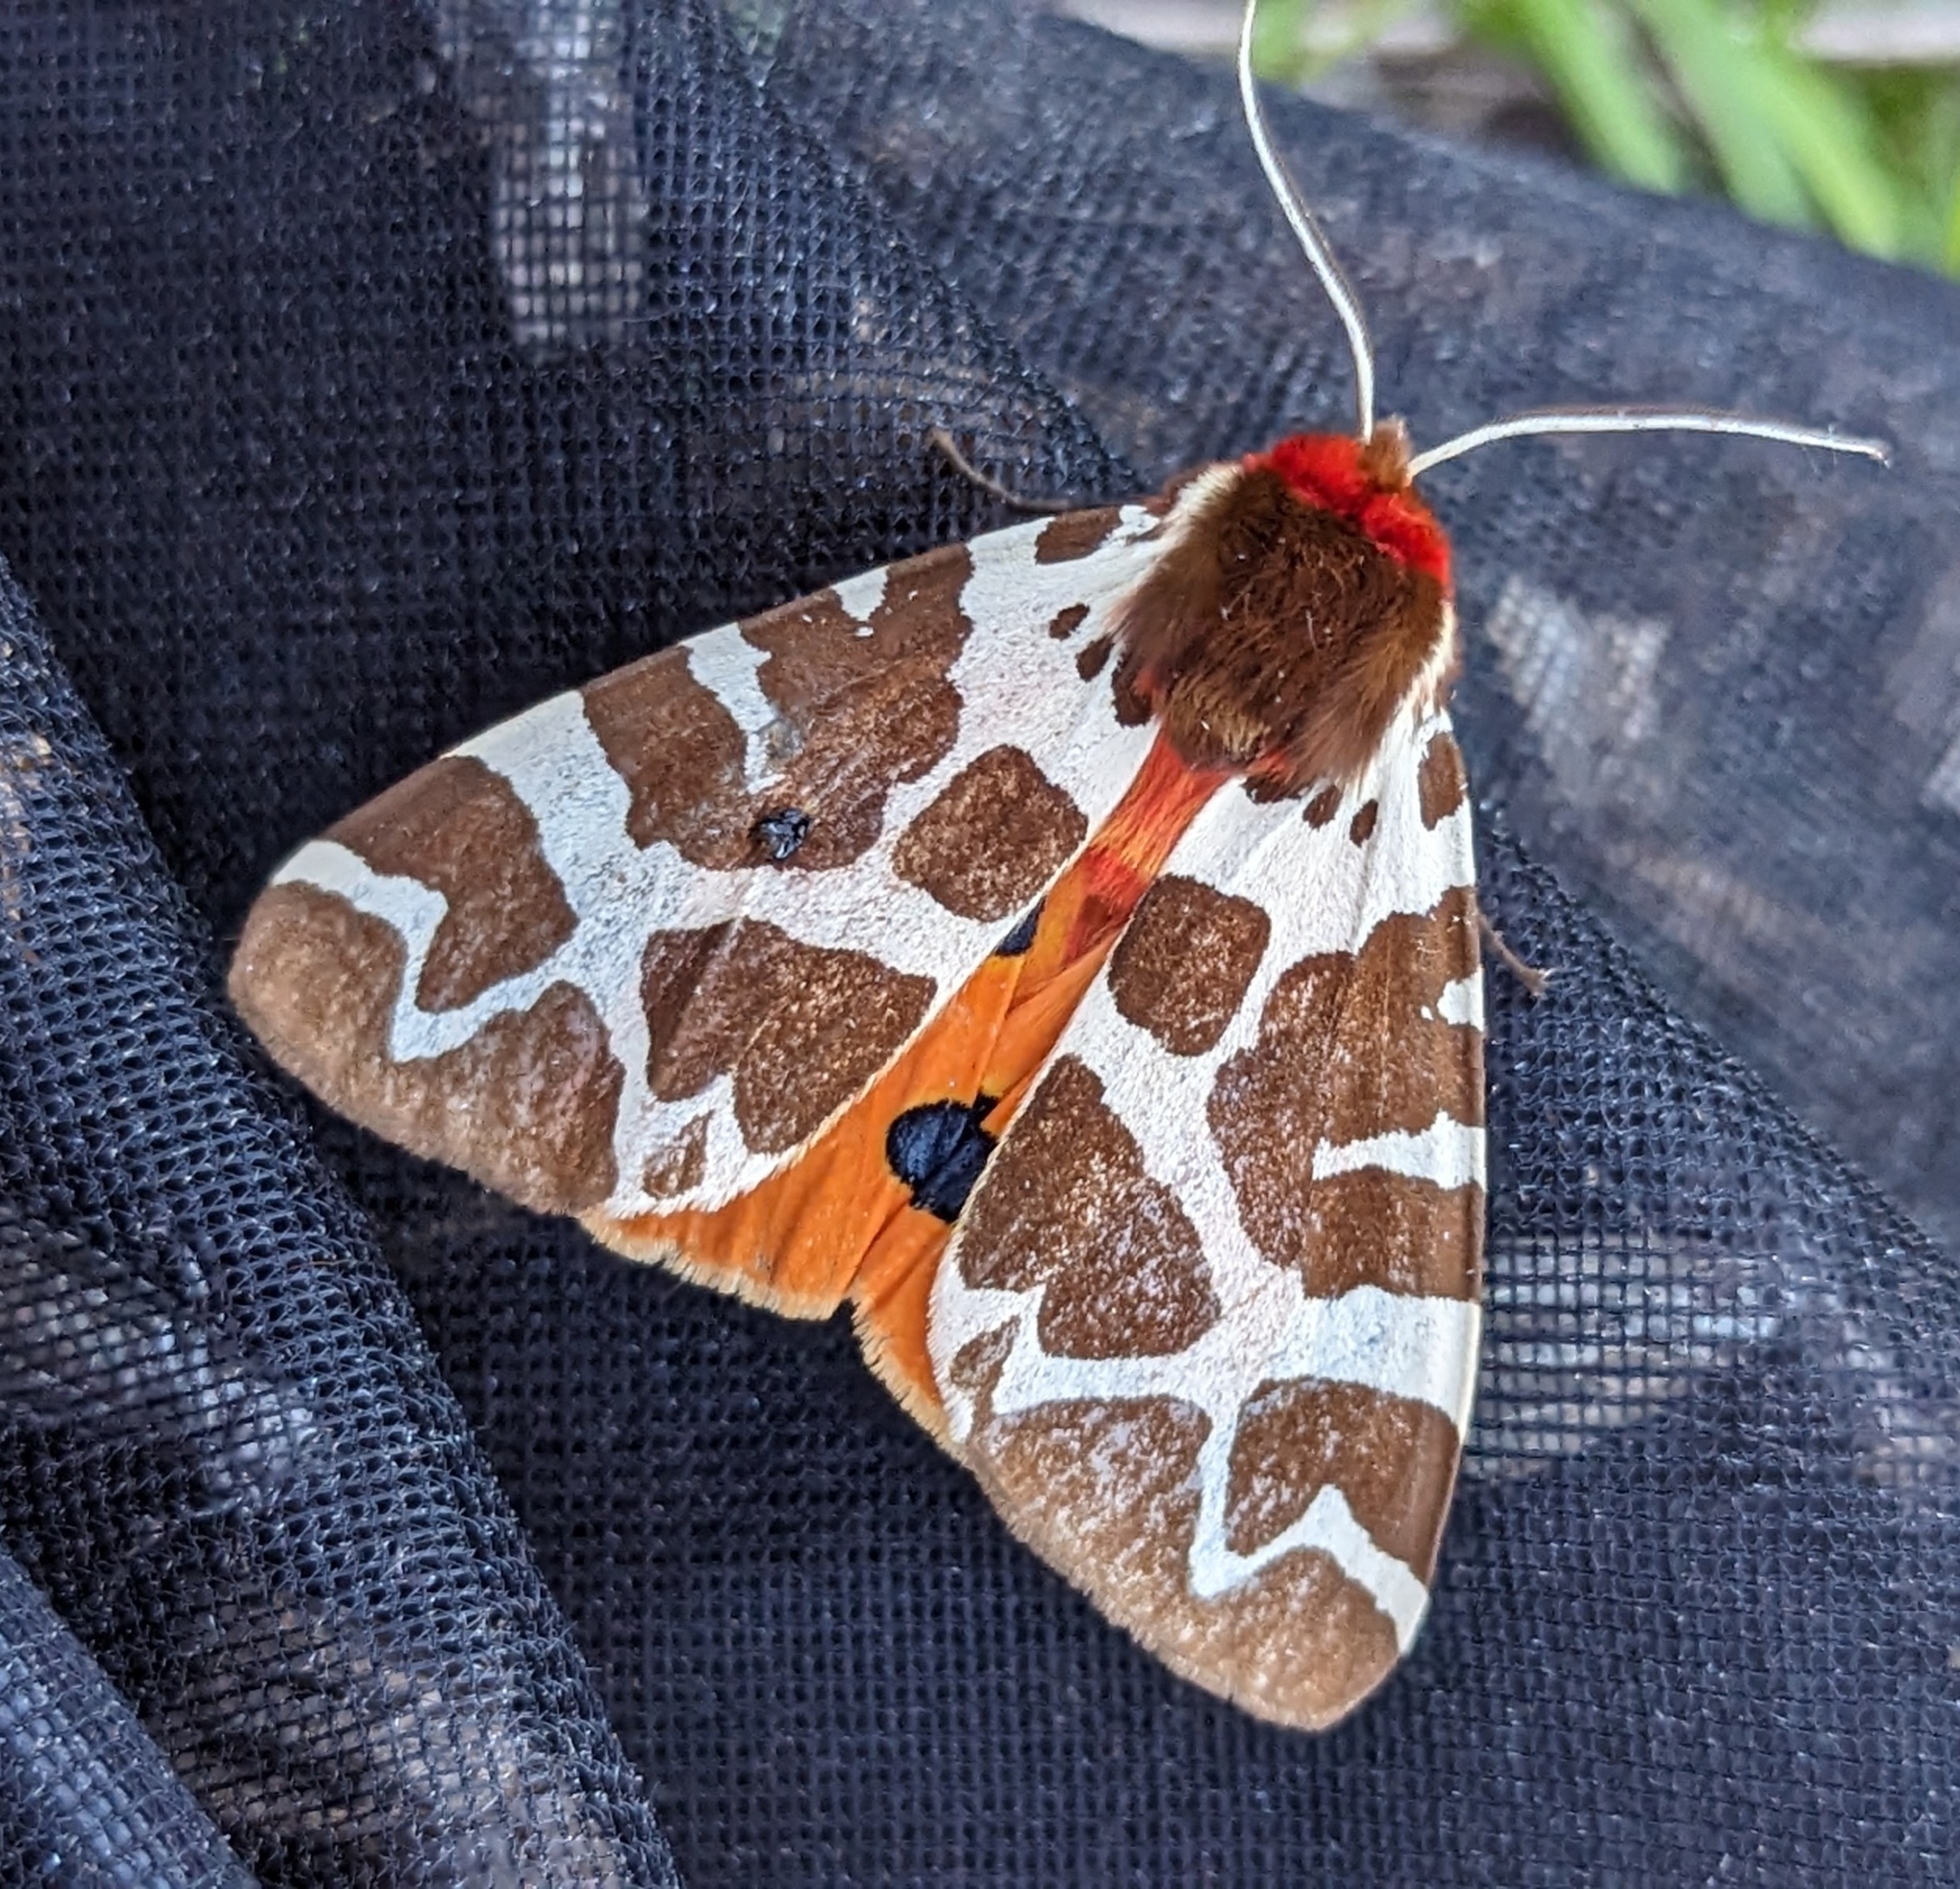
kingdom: Animalia
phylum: Arthropoda
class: Insecta
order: Lepidoptera
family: Erebidae
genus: Arctia
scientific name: Arctia caja
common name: Garden tiger
